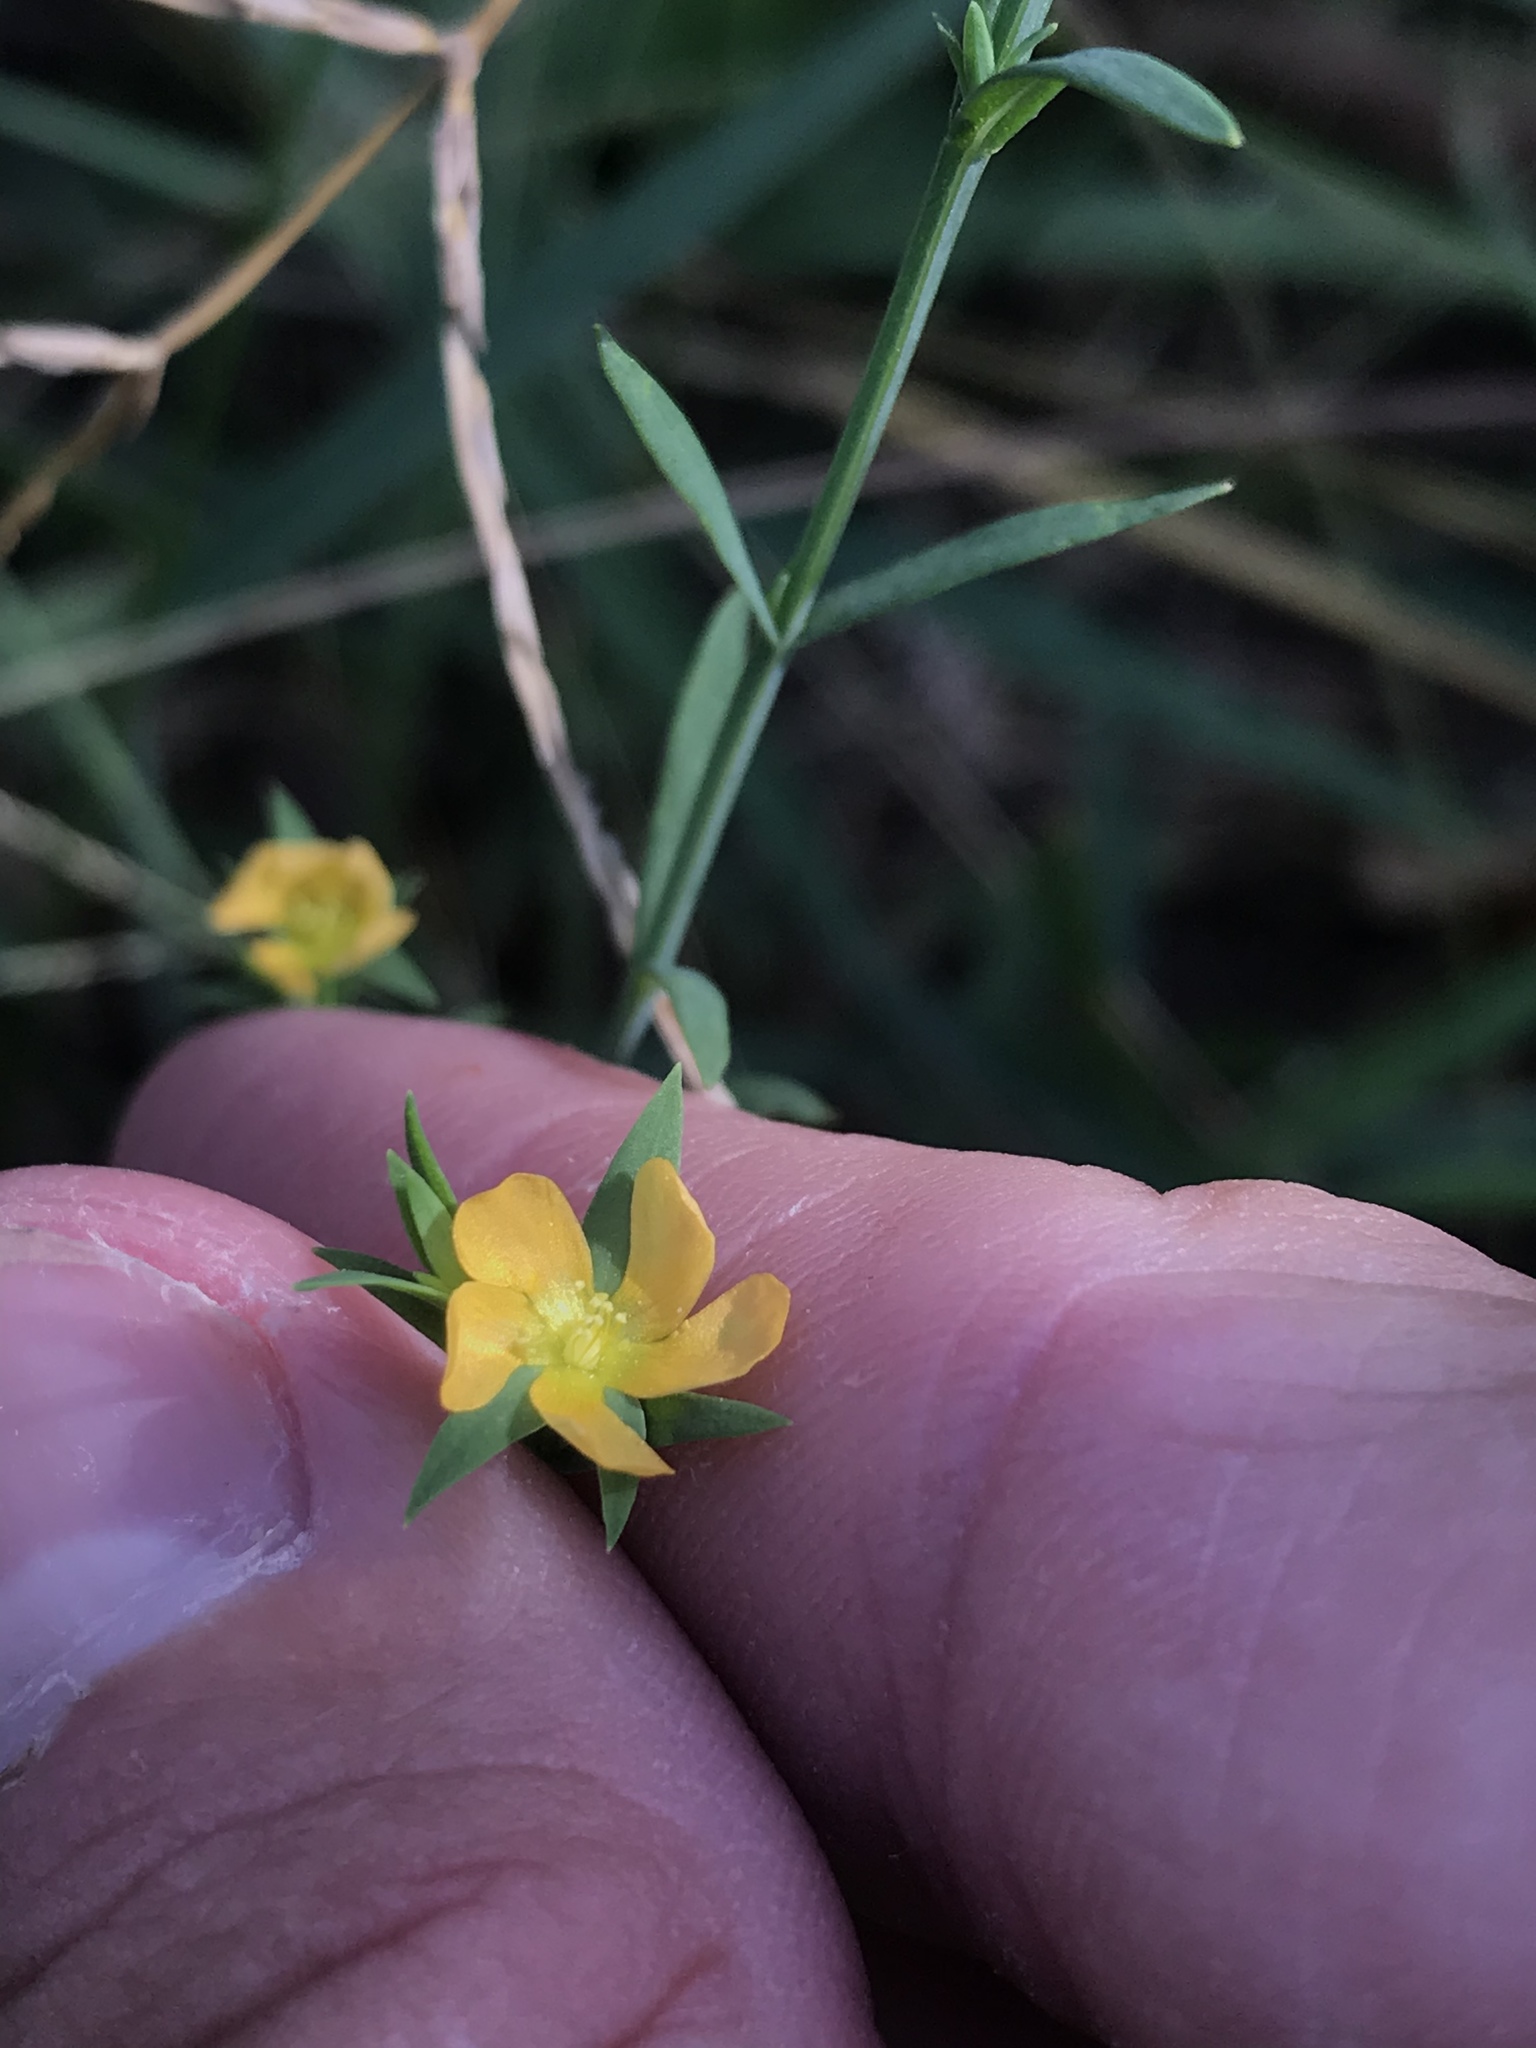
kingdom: Plantae
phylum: Tracheophyta
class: Magnoliopsida
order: Malpighiales
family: Hypericaceae
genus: Hypericum
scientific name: Hypericum drummondii
